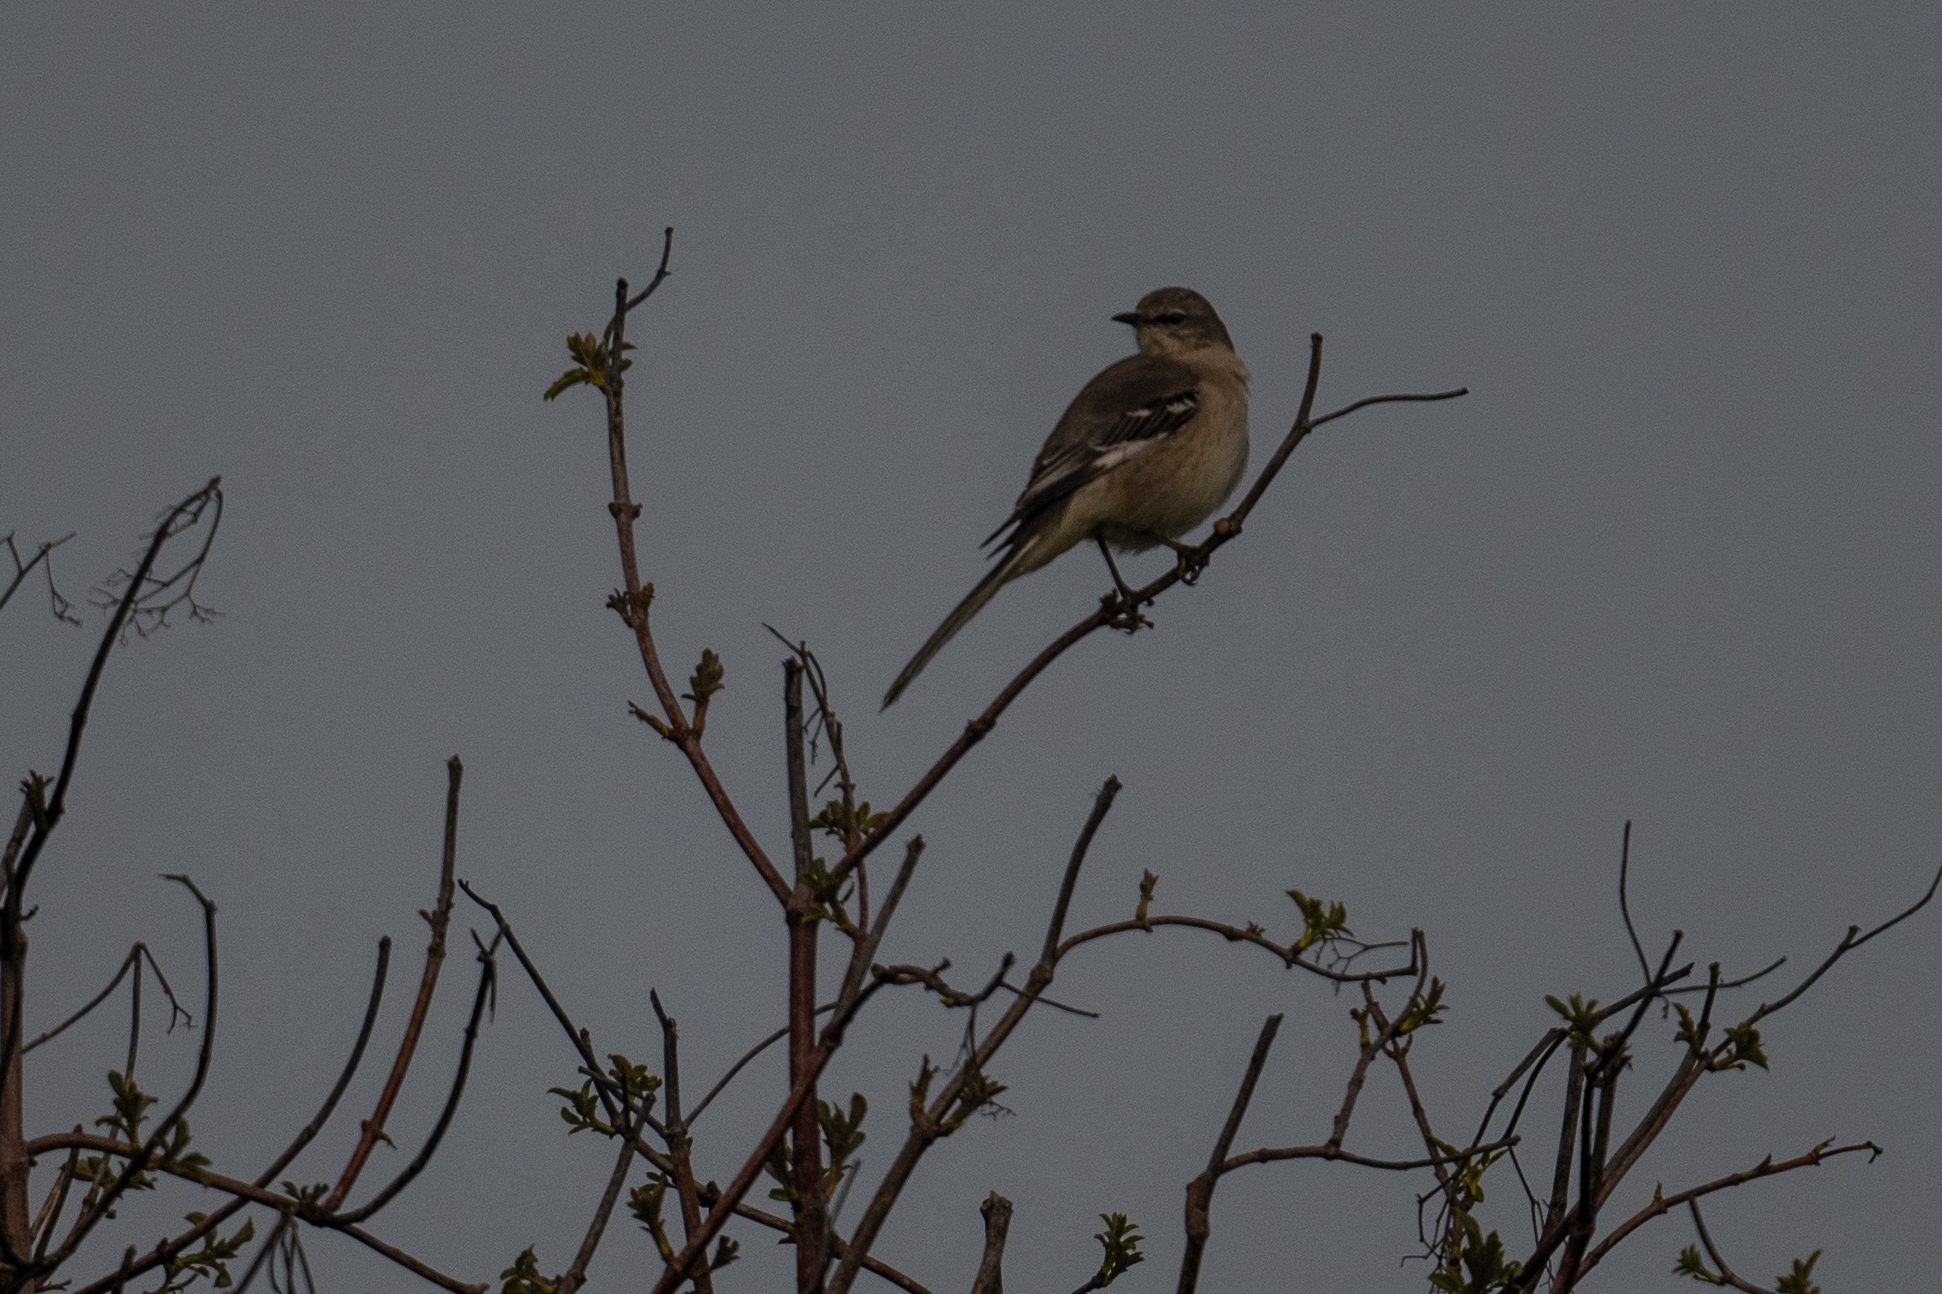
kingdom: Animalia
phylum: Chordata
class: Aves
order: Passeriformes
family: Mimidae
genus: Mimus
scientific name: Mimus polyglottos
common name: Northern mockingbird
